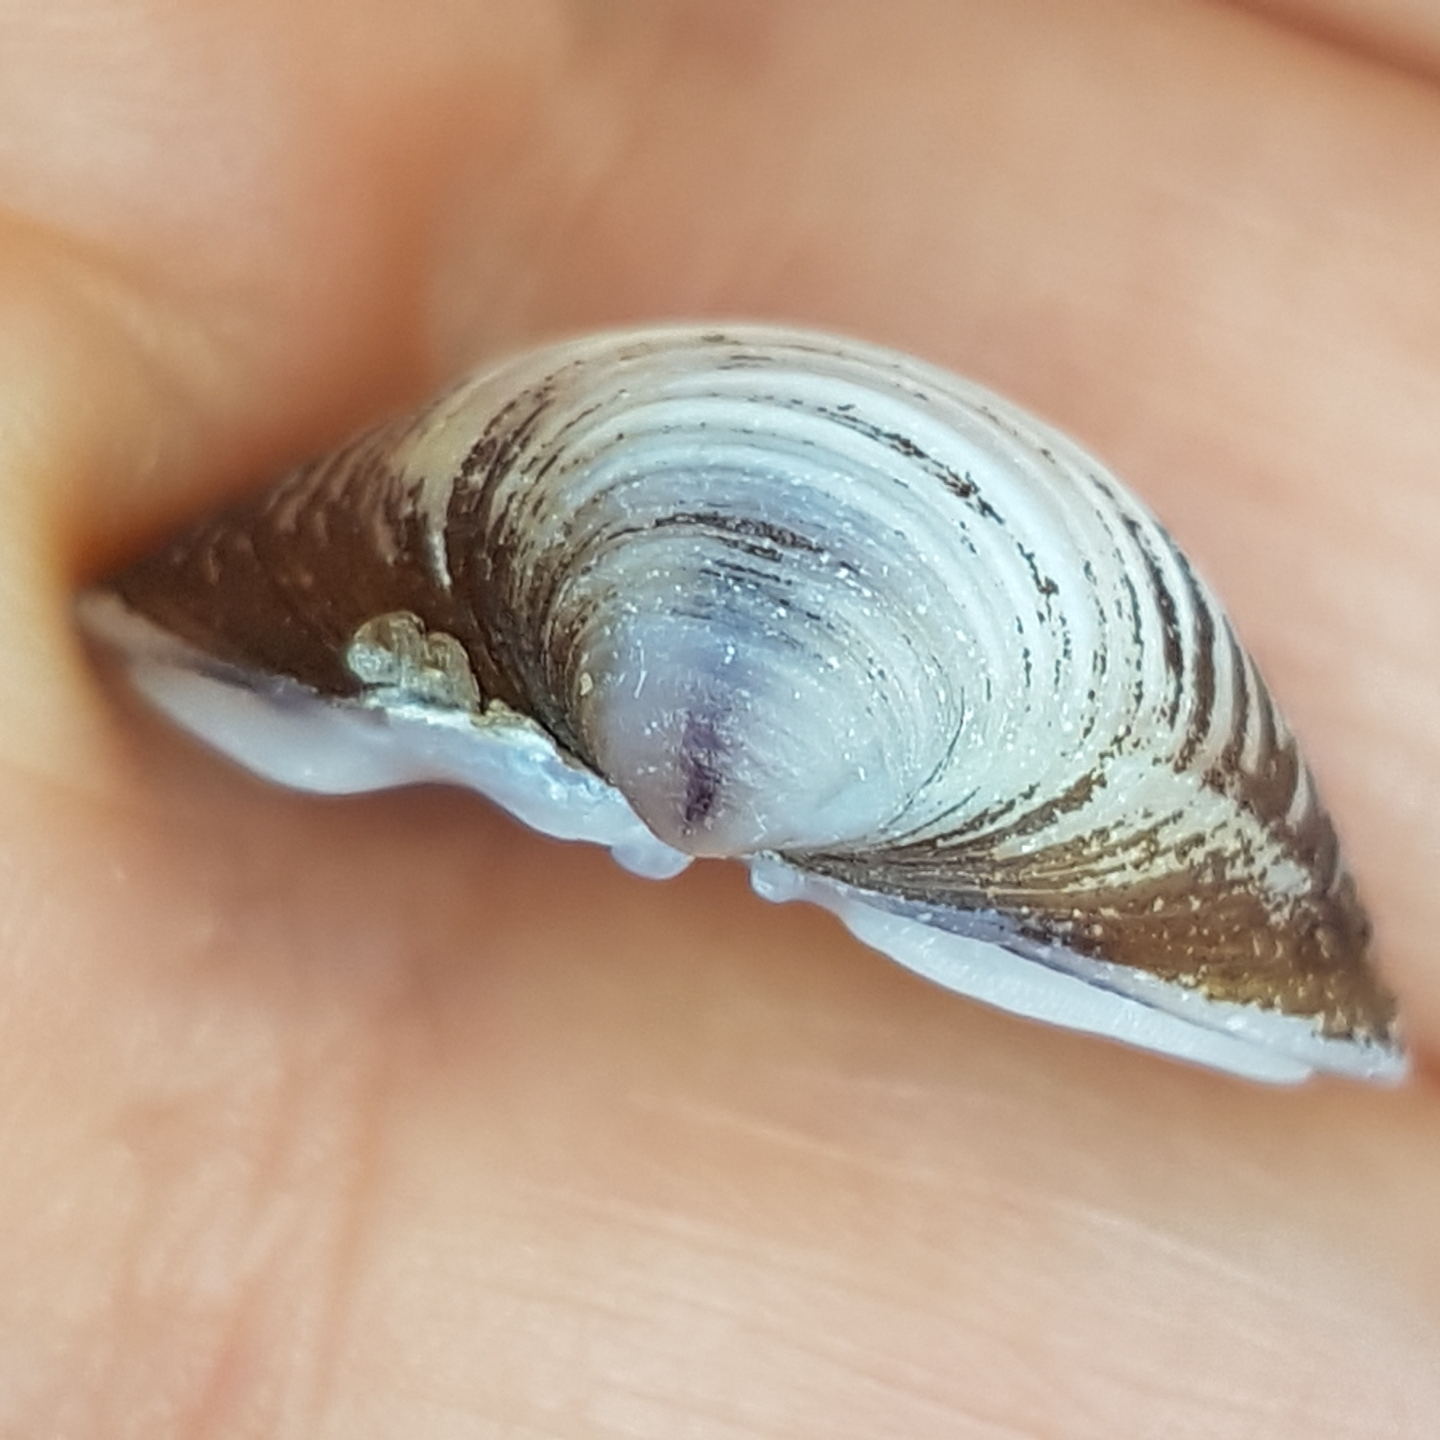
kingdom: Animalia
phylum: Mollusca
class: Bivalvia
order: Venerida
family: Cyrenidae
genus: Corbicula
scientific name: Corbicula fluminea
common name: Asian clam
